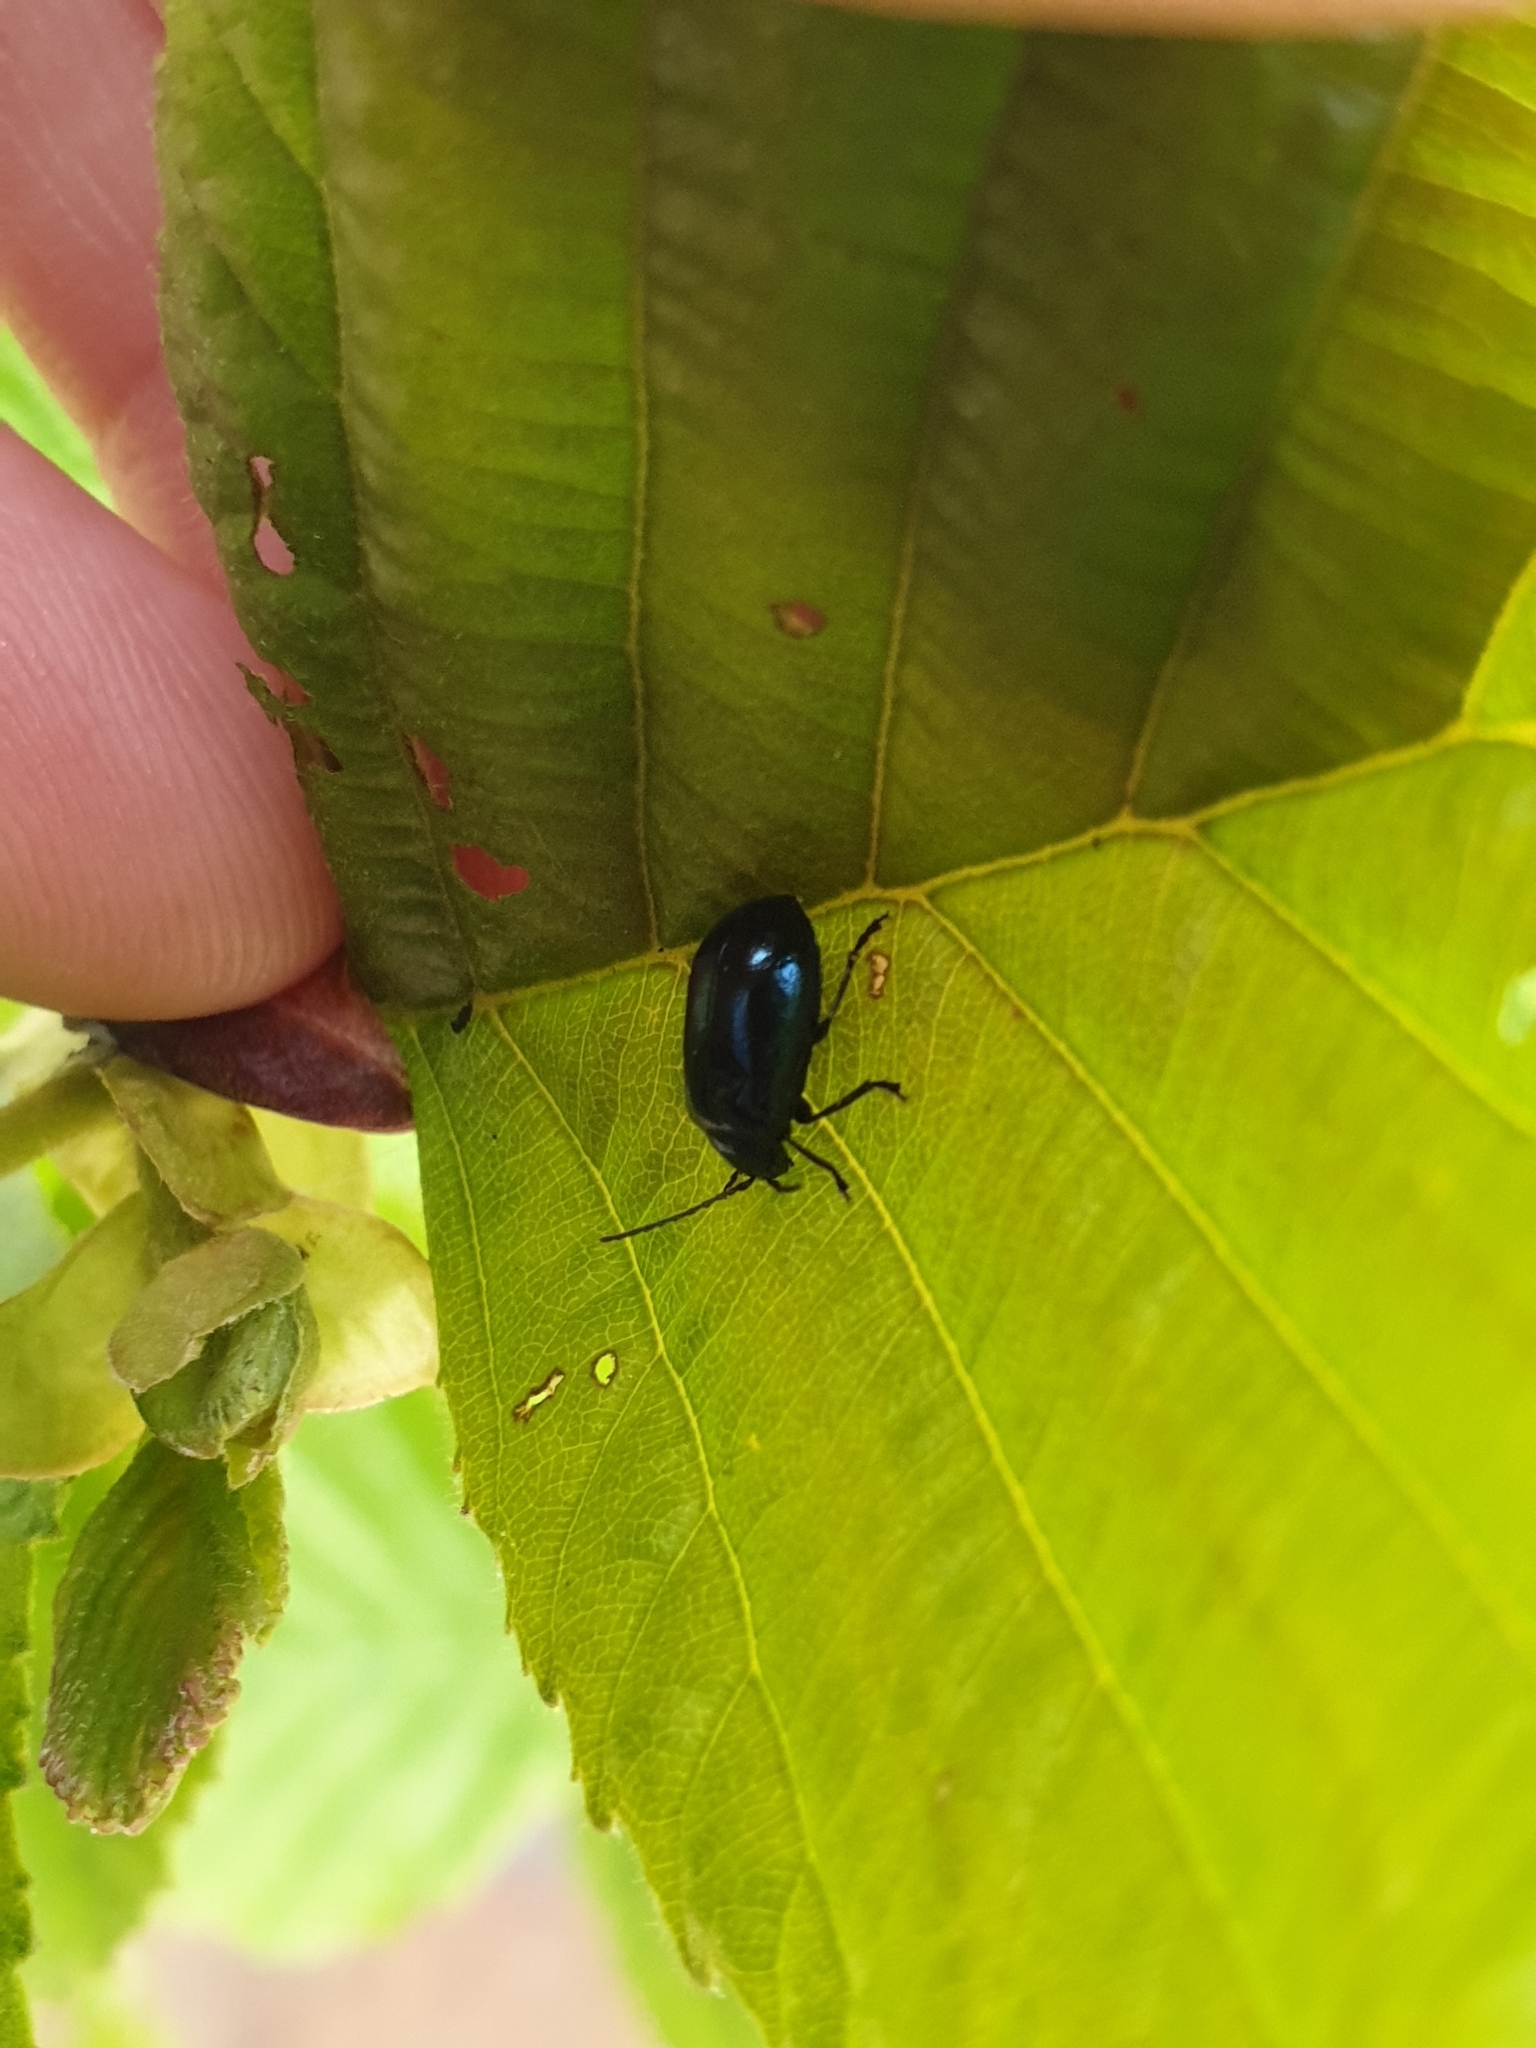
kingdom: Animalia
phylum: Arthropoda
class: Insecta
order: Coleoptera
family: Chrysomelidae
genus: Agelastica
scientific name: Agelastica alni
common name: Alder leaf beetle
